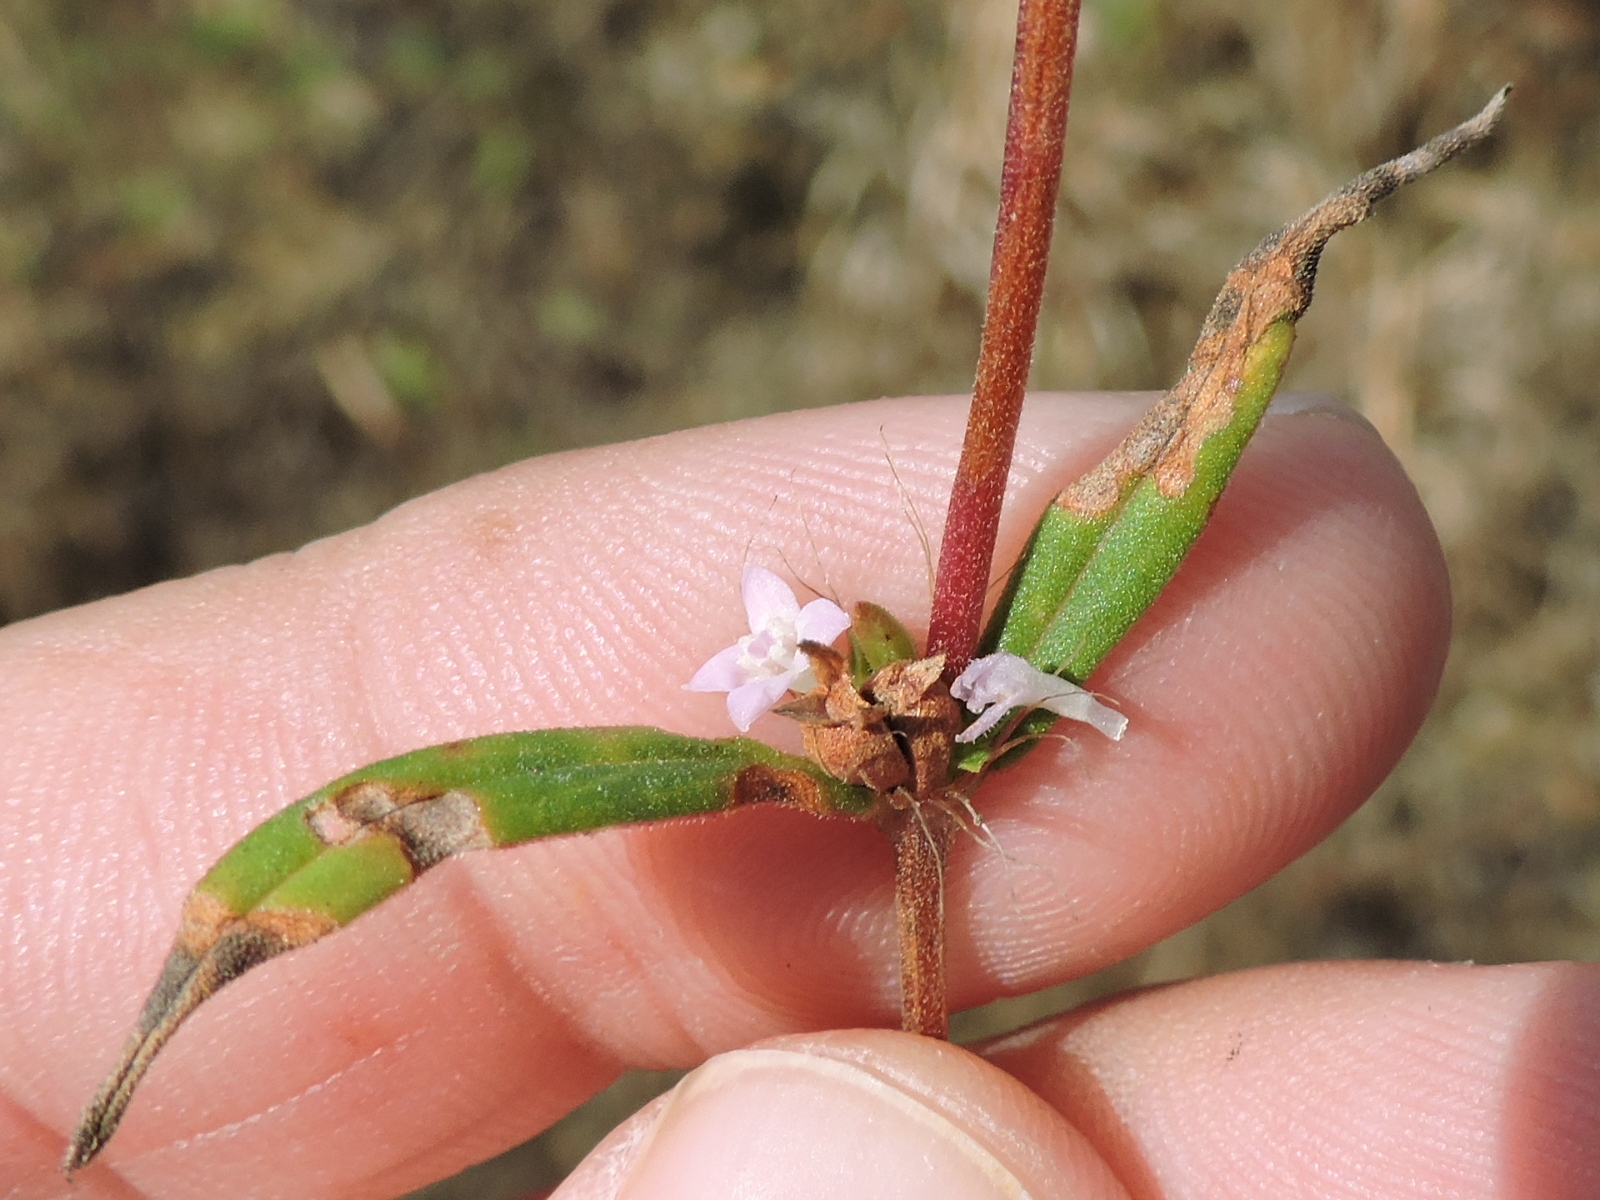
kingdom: Plantae
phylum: Tracheophyta
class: Magnoliopsida
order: Gentianales
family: Rubiaceae
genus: Hexasepalum
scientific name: Hexasepalum teres
